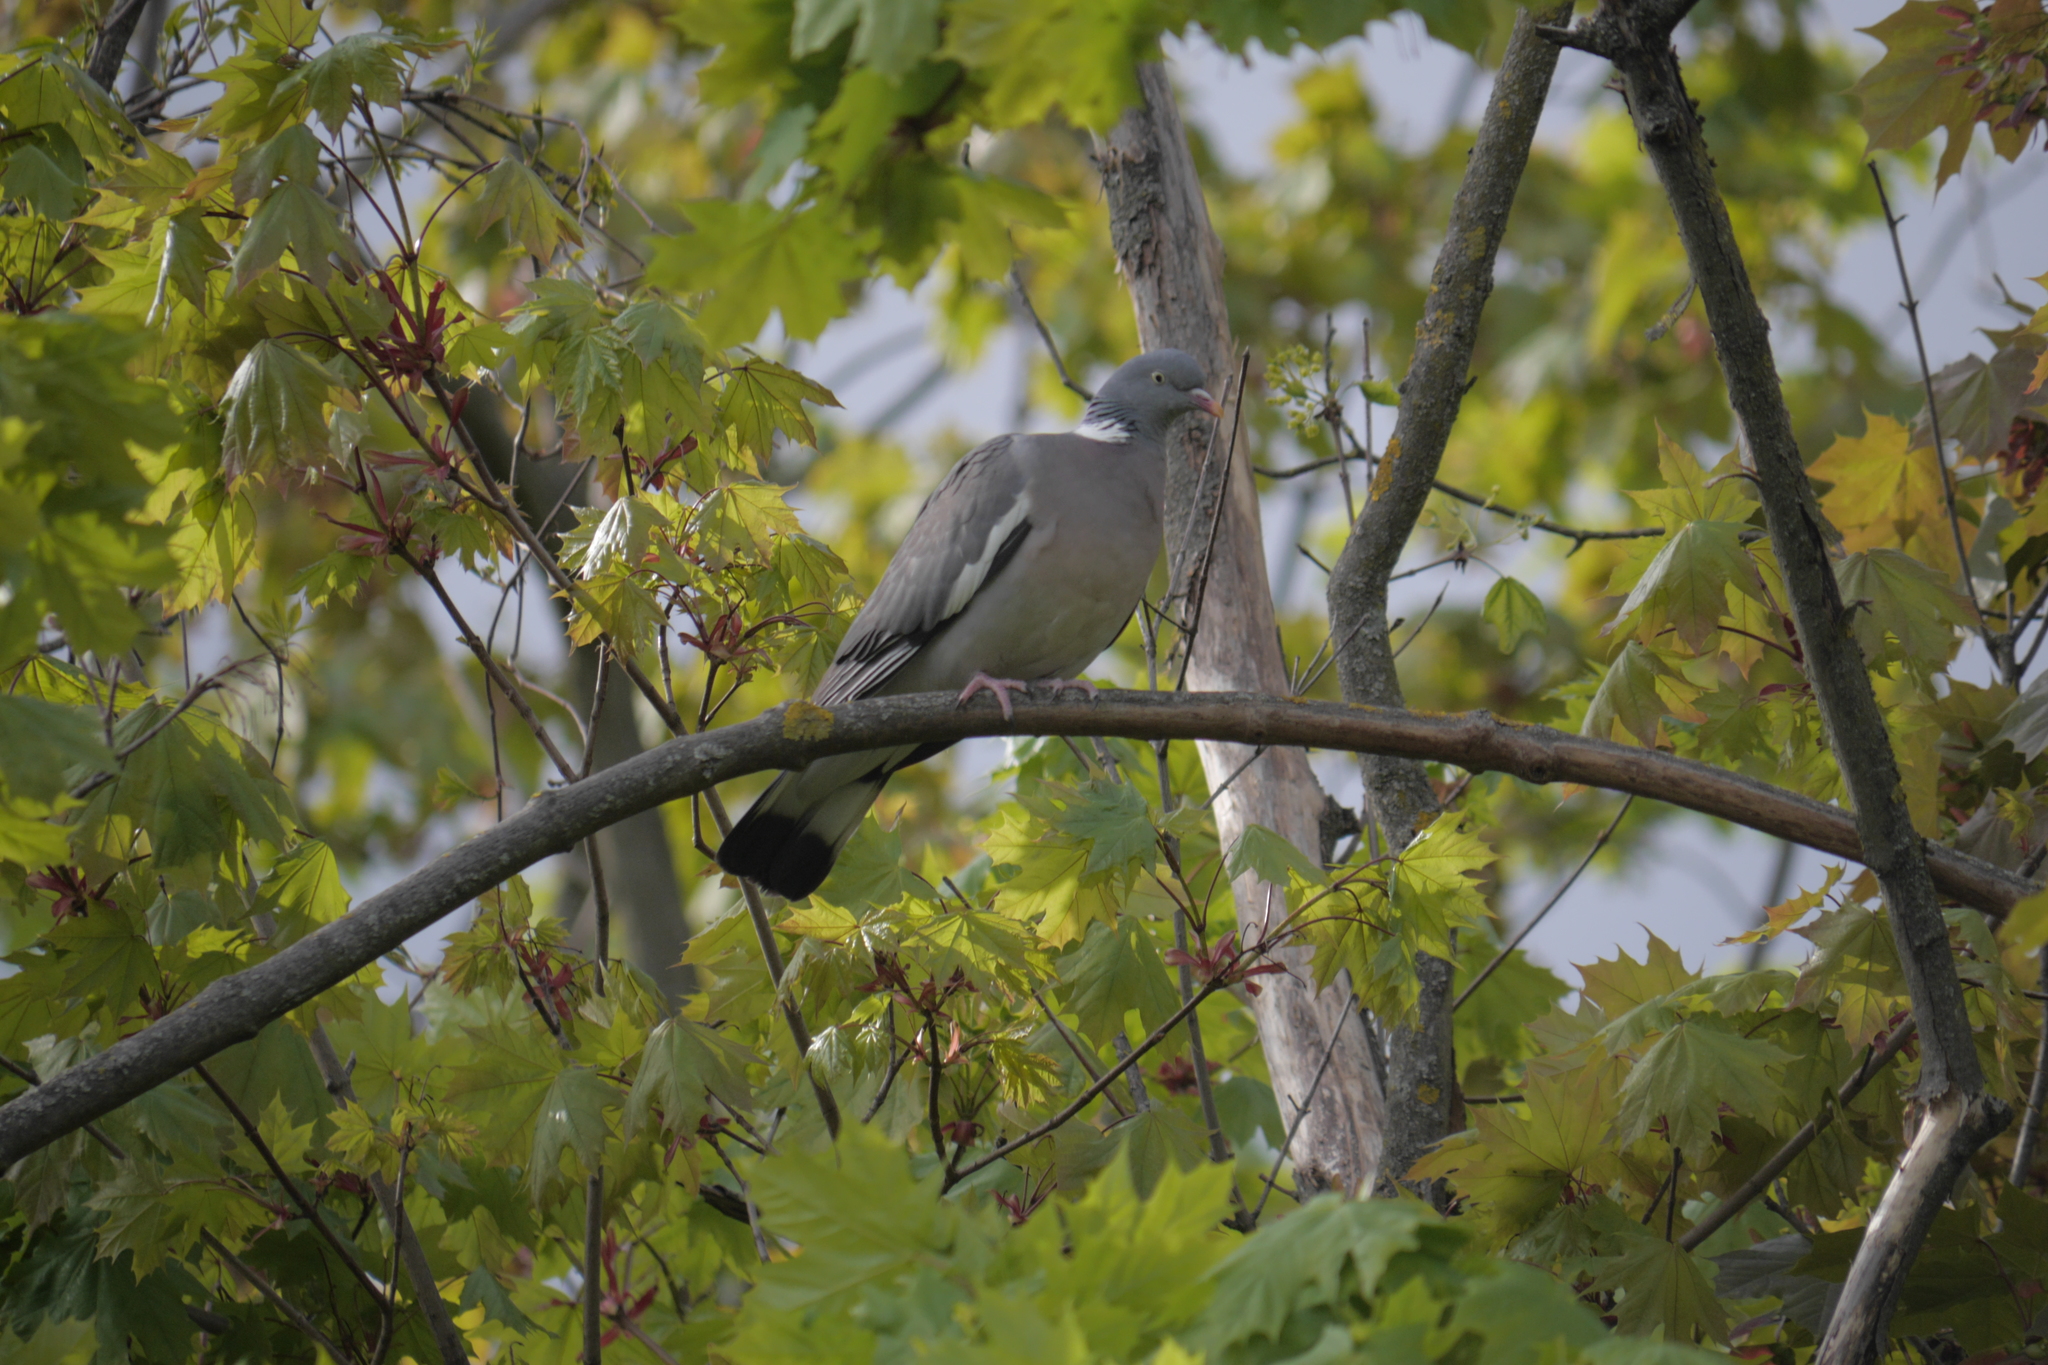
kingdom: Animalia
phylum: Chordata
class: Aves
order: Columbiformes
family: Columbidae
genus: Columba
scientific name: Columba palumbus
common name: Common wood pigeon
